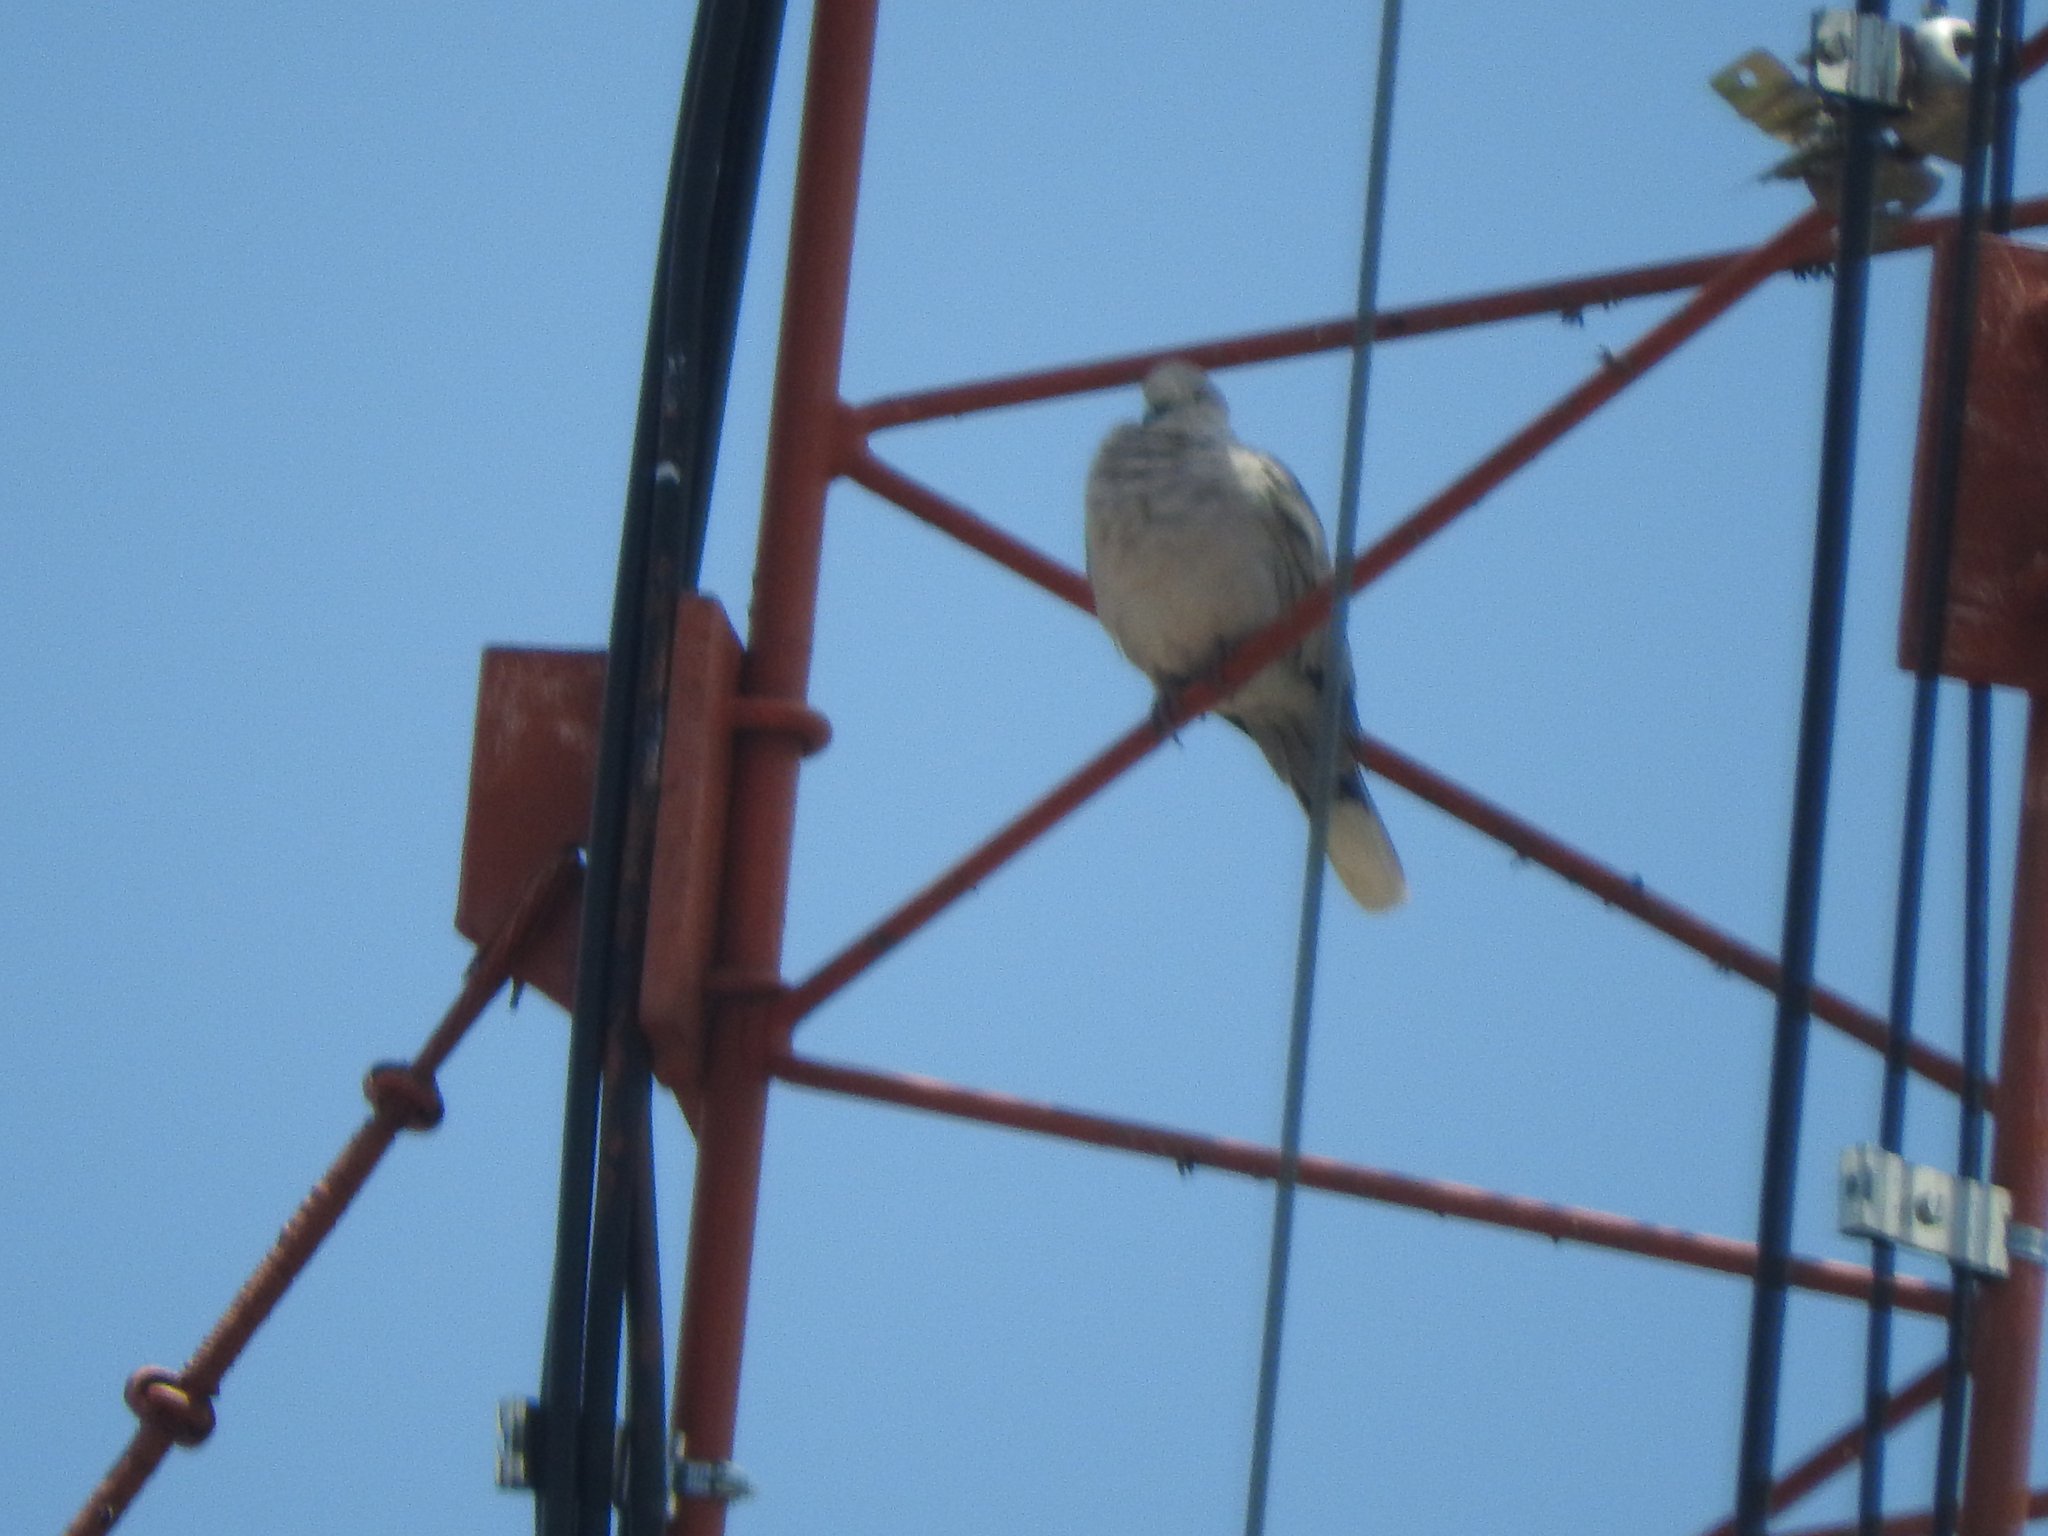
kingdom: Animalia
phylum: Chordata
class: Aves
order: Columbiformes
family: Columbidae
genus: Streptopelia
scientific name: Streptopelia decaocto
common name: Eurasian collared dove
